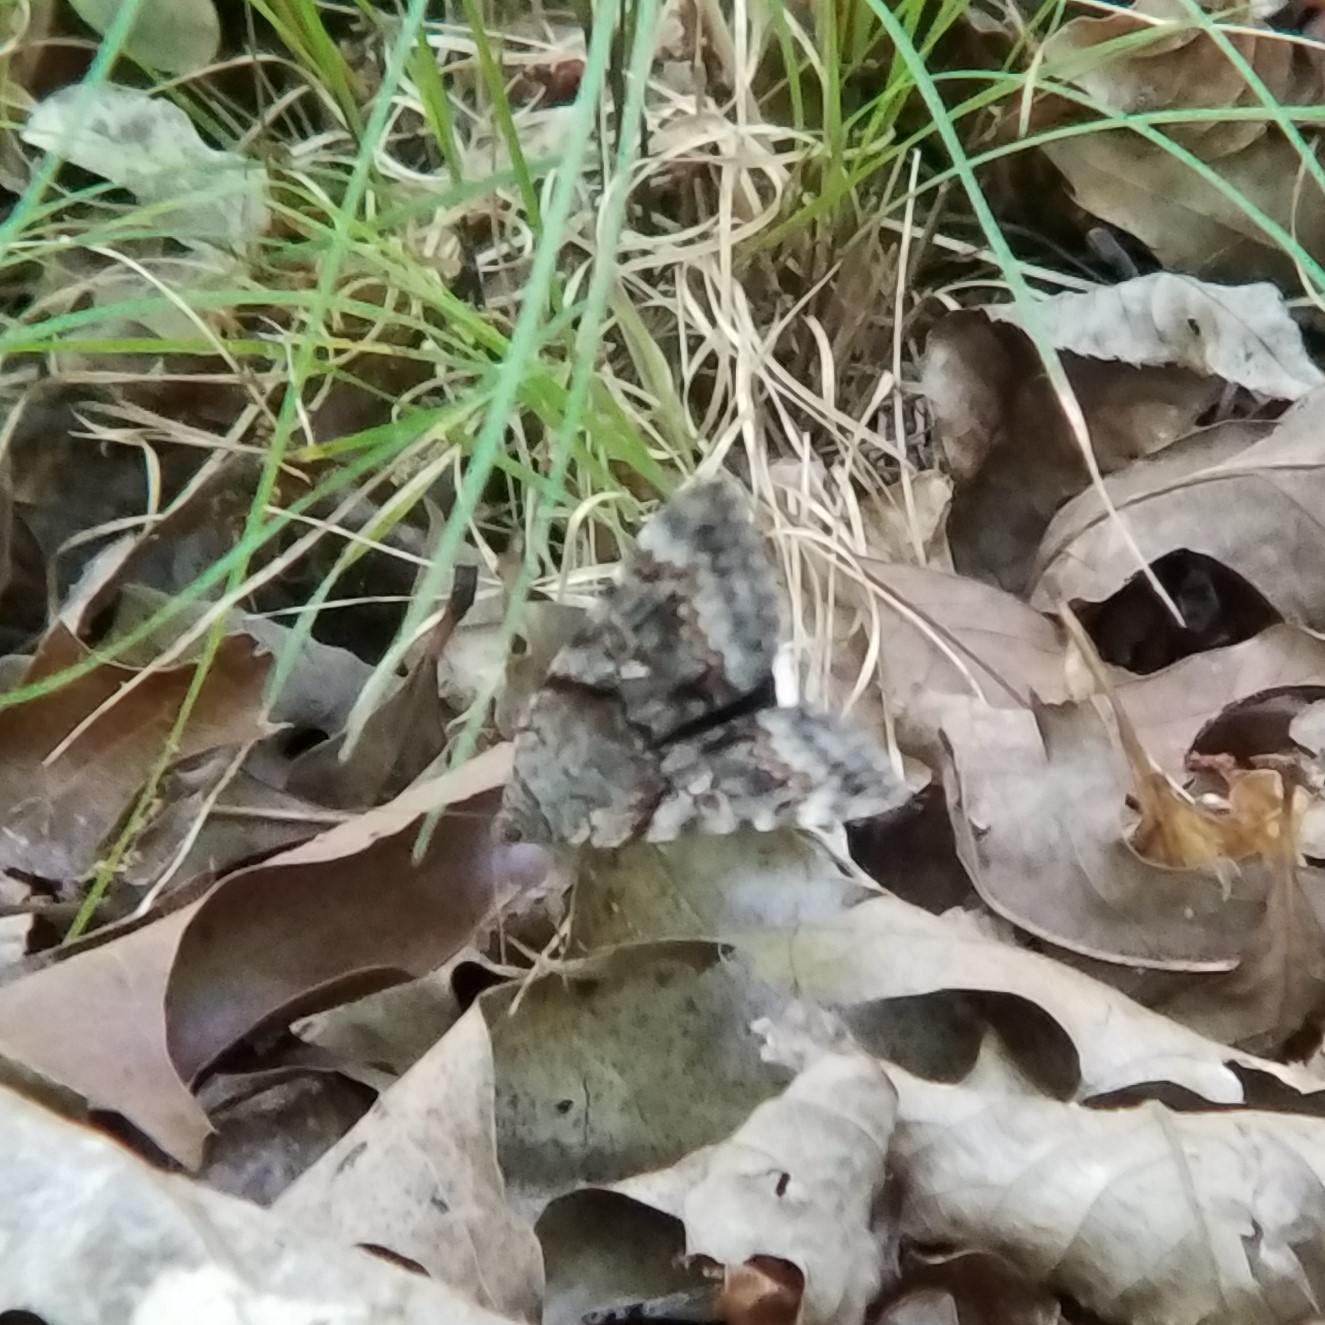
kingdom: Animalia
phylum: Arthropoda
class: Insecta
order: Lepidoptera
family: Erebidae
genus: Catocala
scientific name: Catocala epione
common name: Epione underwing
